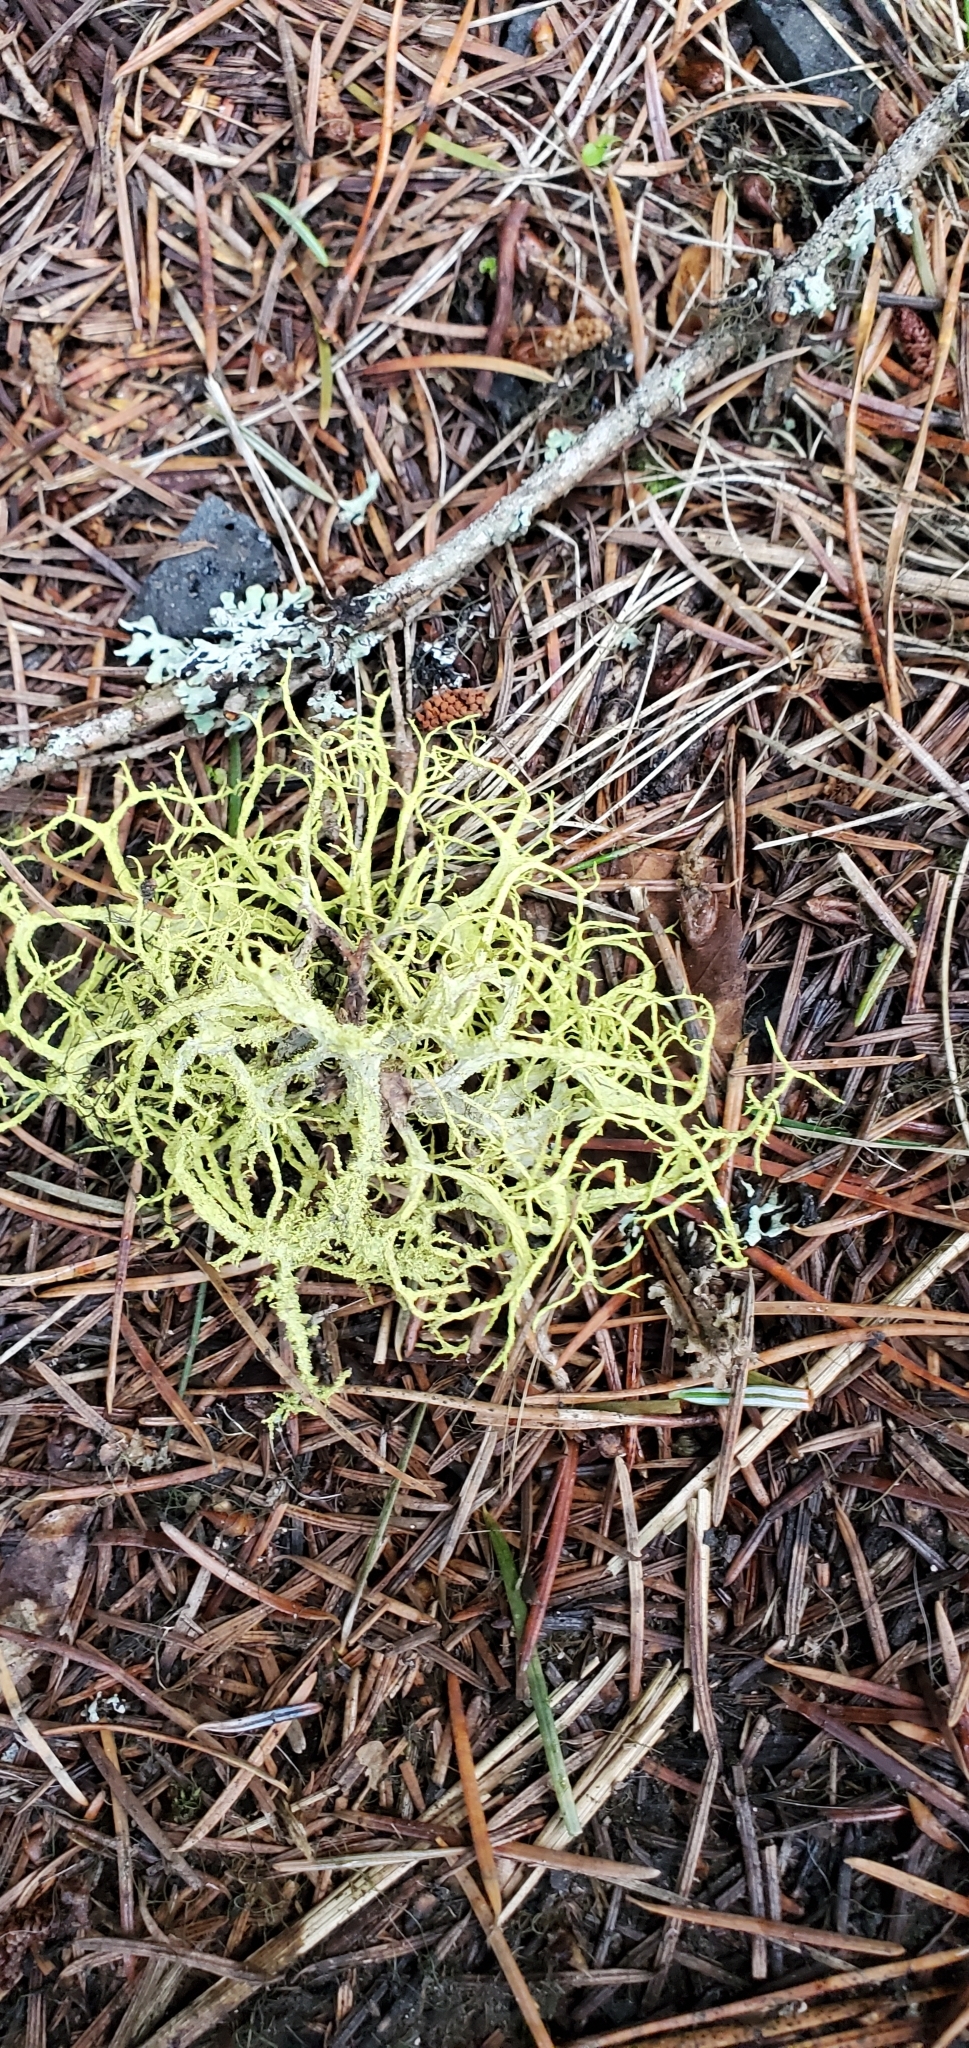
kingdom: Fungi
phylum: Ascomycota
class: Lecanoromycetes
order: Lecanorales
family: Parmeliaceae
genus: Letharia
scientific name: Letharia vulpina
